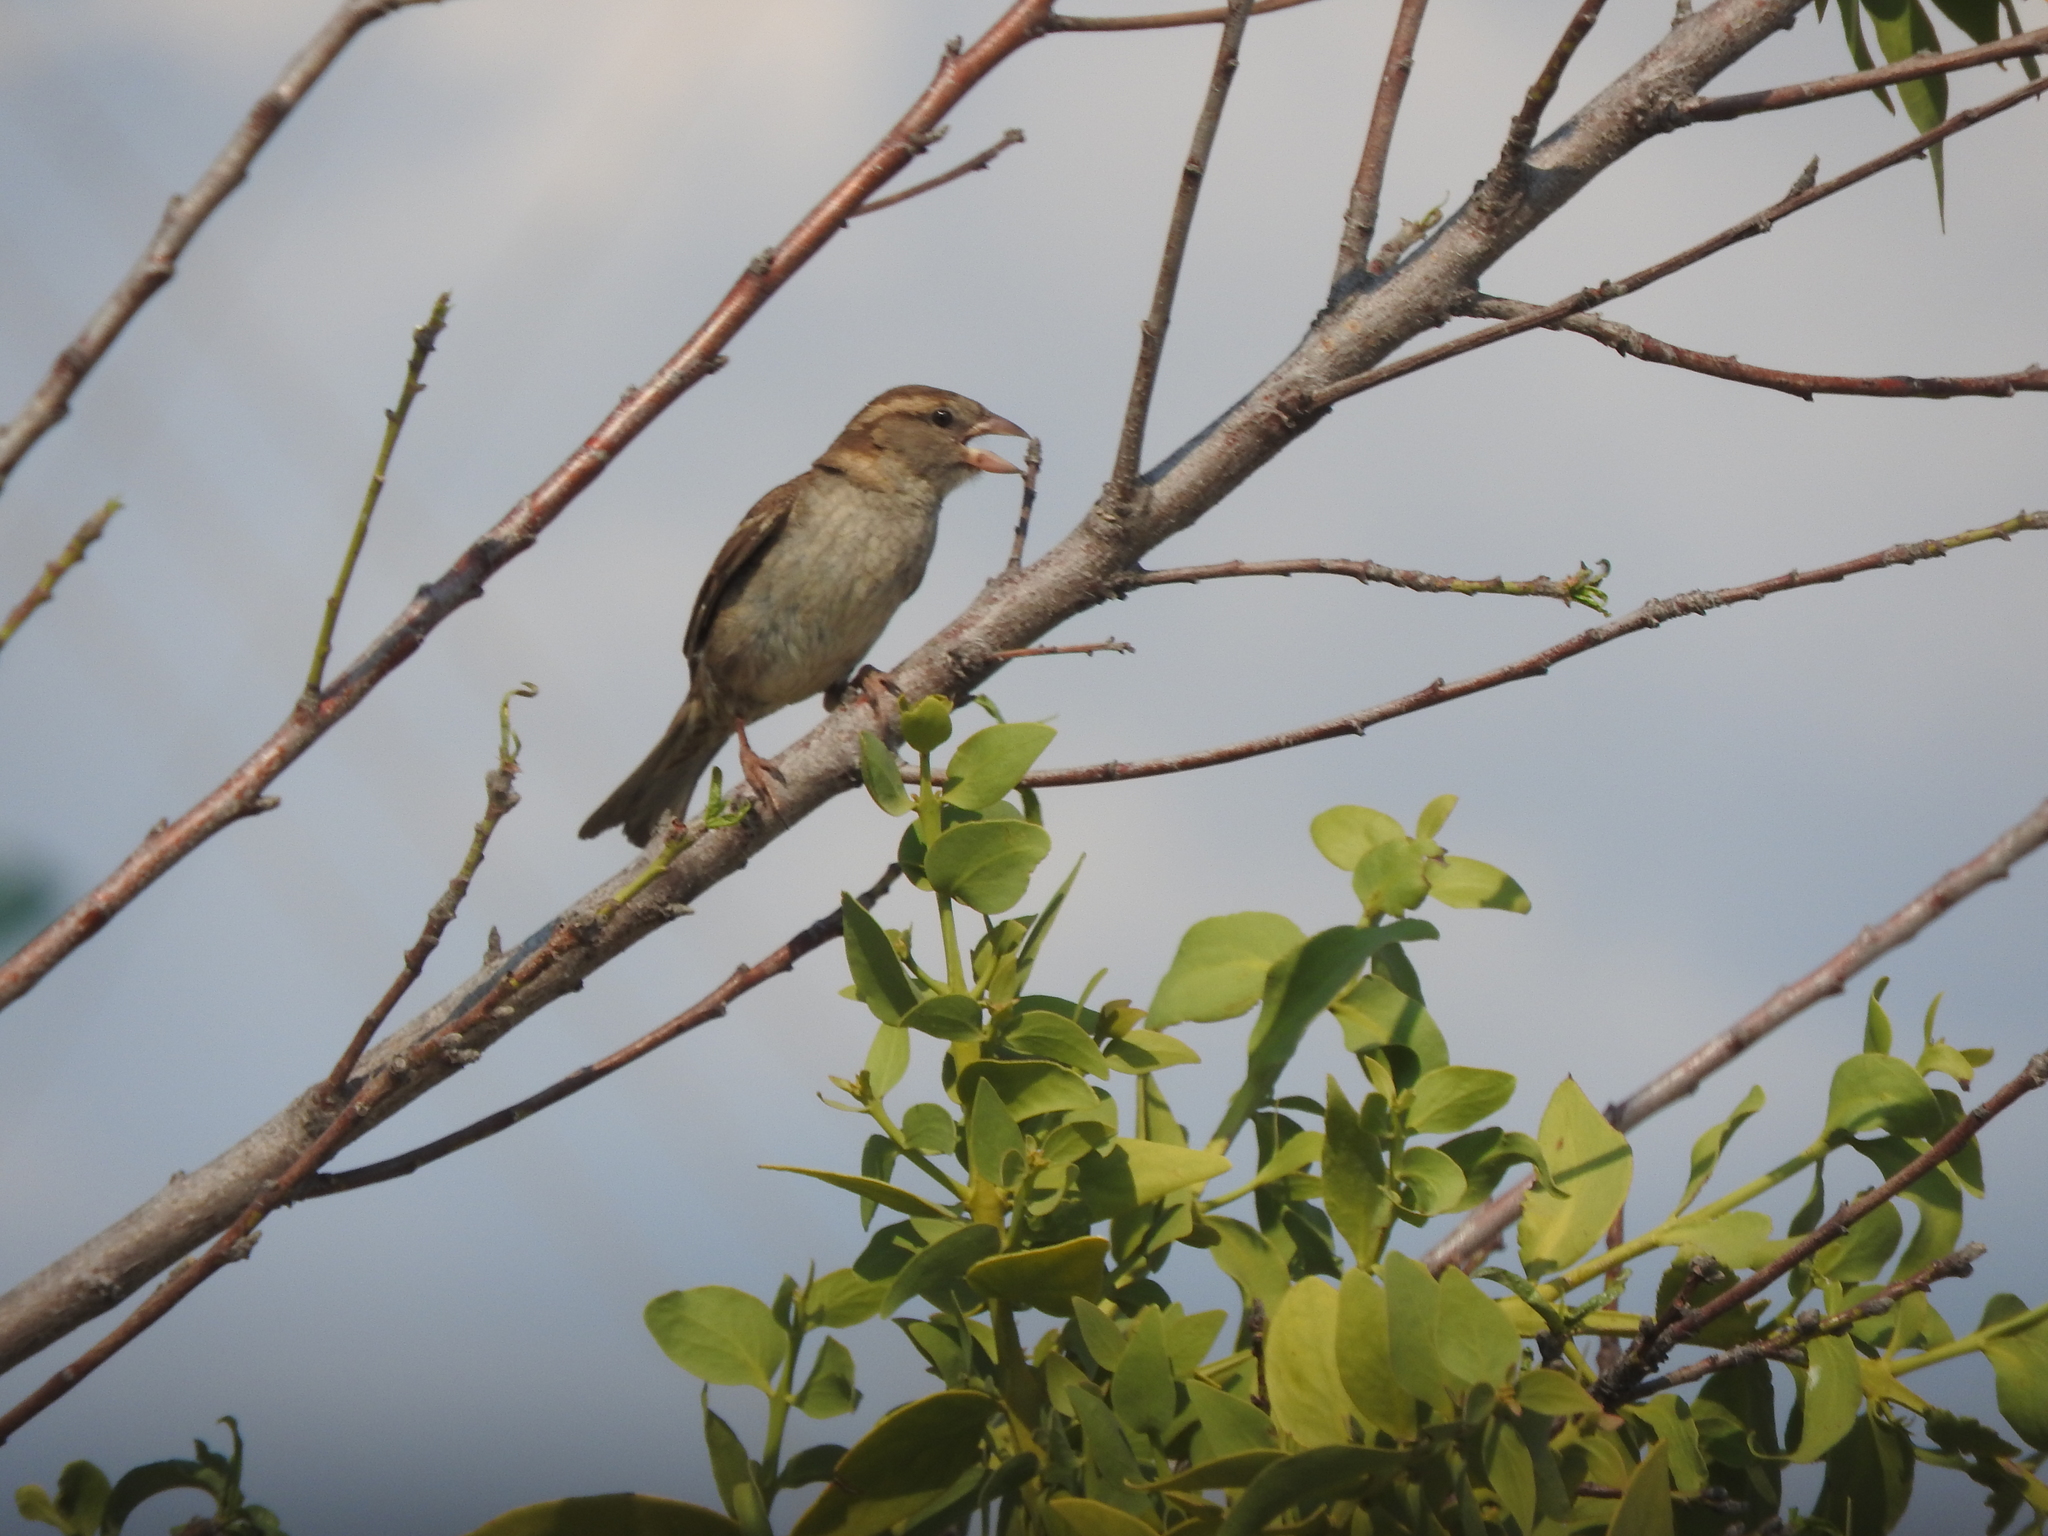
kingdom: Animalia
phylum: Chordata
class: Aves
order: Passeriformes
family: Passeridae
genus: Passer
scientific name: Passer domesticus
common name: House sparrow
